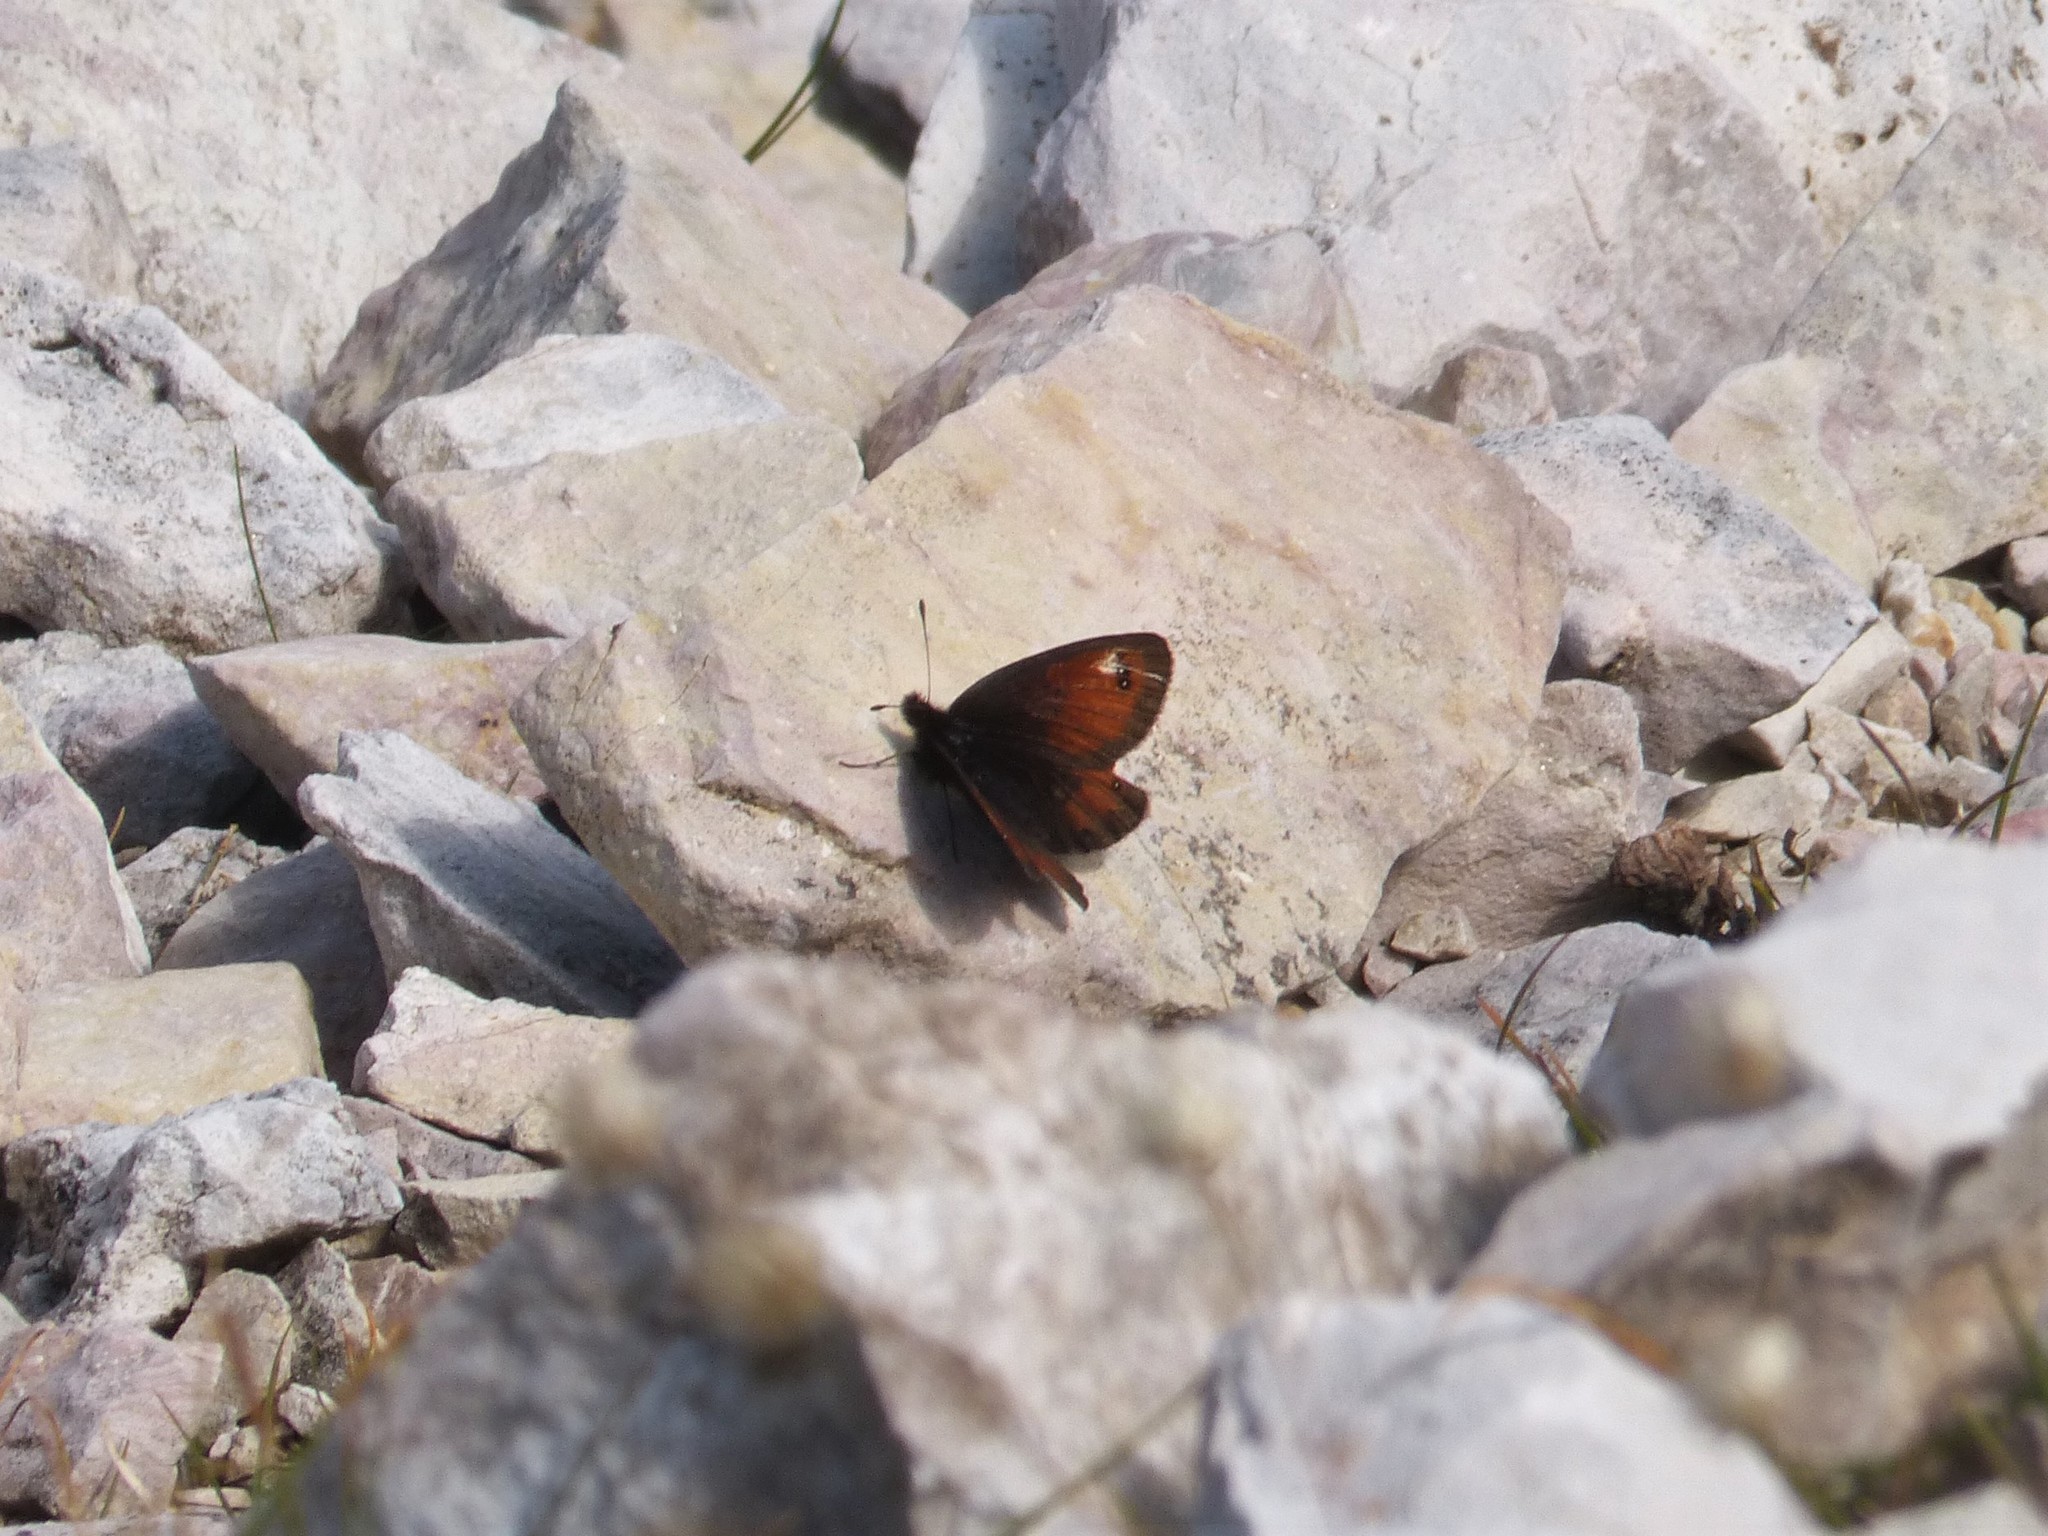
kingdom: Animalia
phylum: Arthropoda
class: Insecta
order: Lepidoptera
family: Nymphalidae
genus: Erebia
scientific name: Erebia gorge
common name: Silky ringlet
